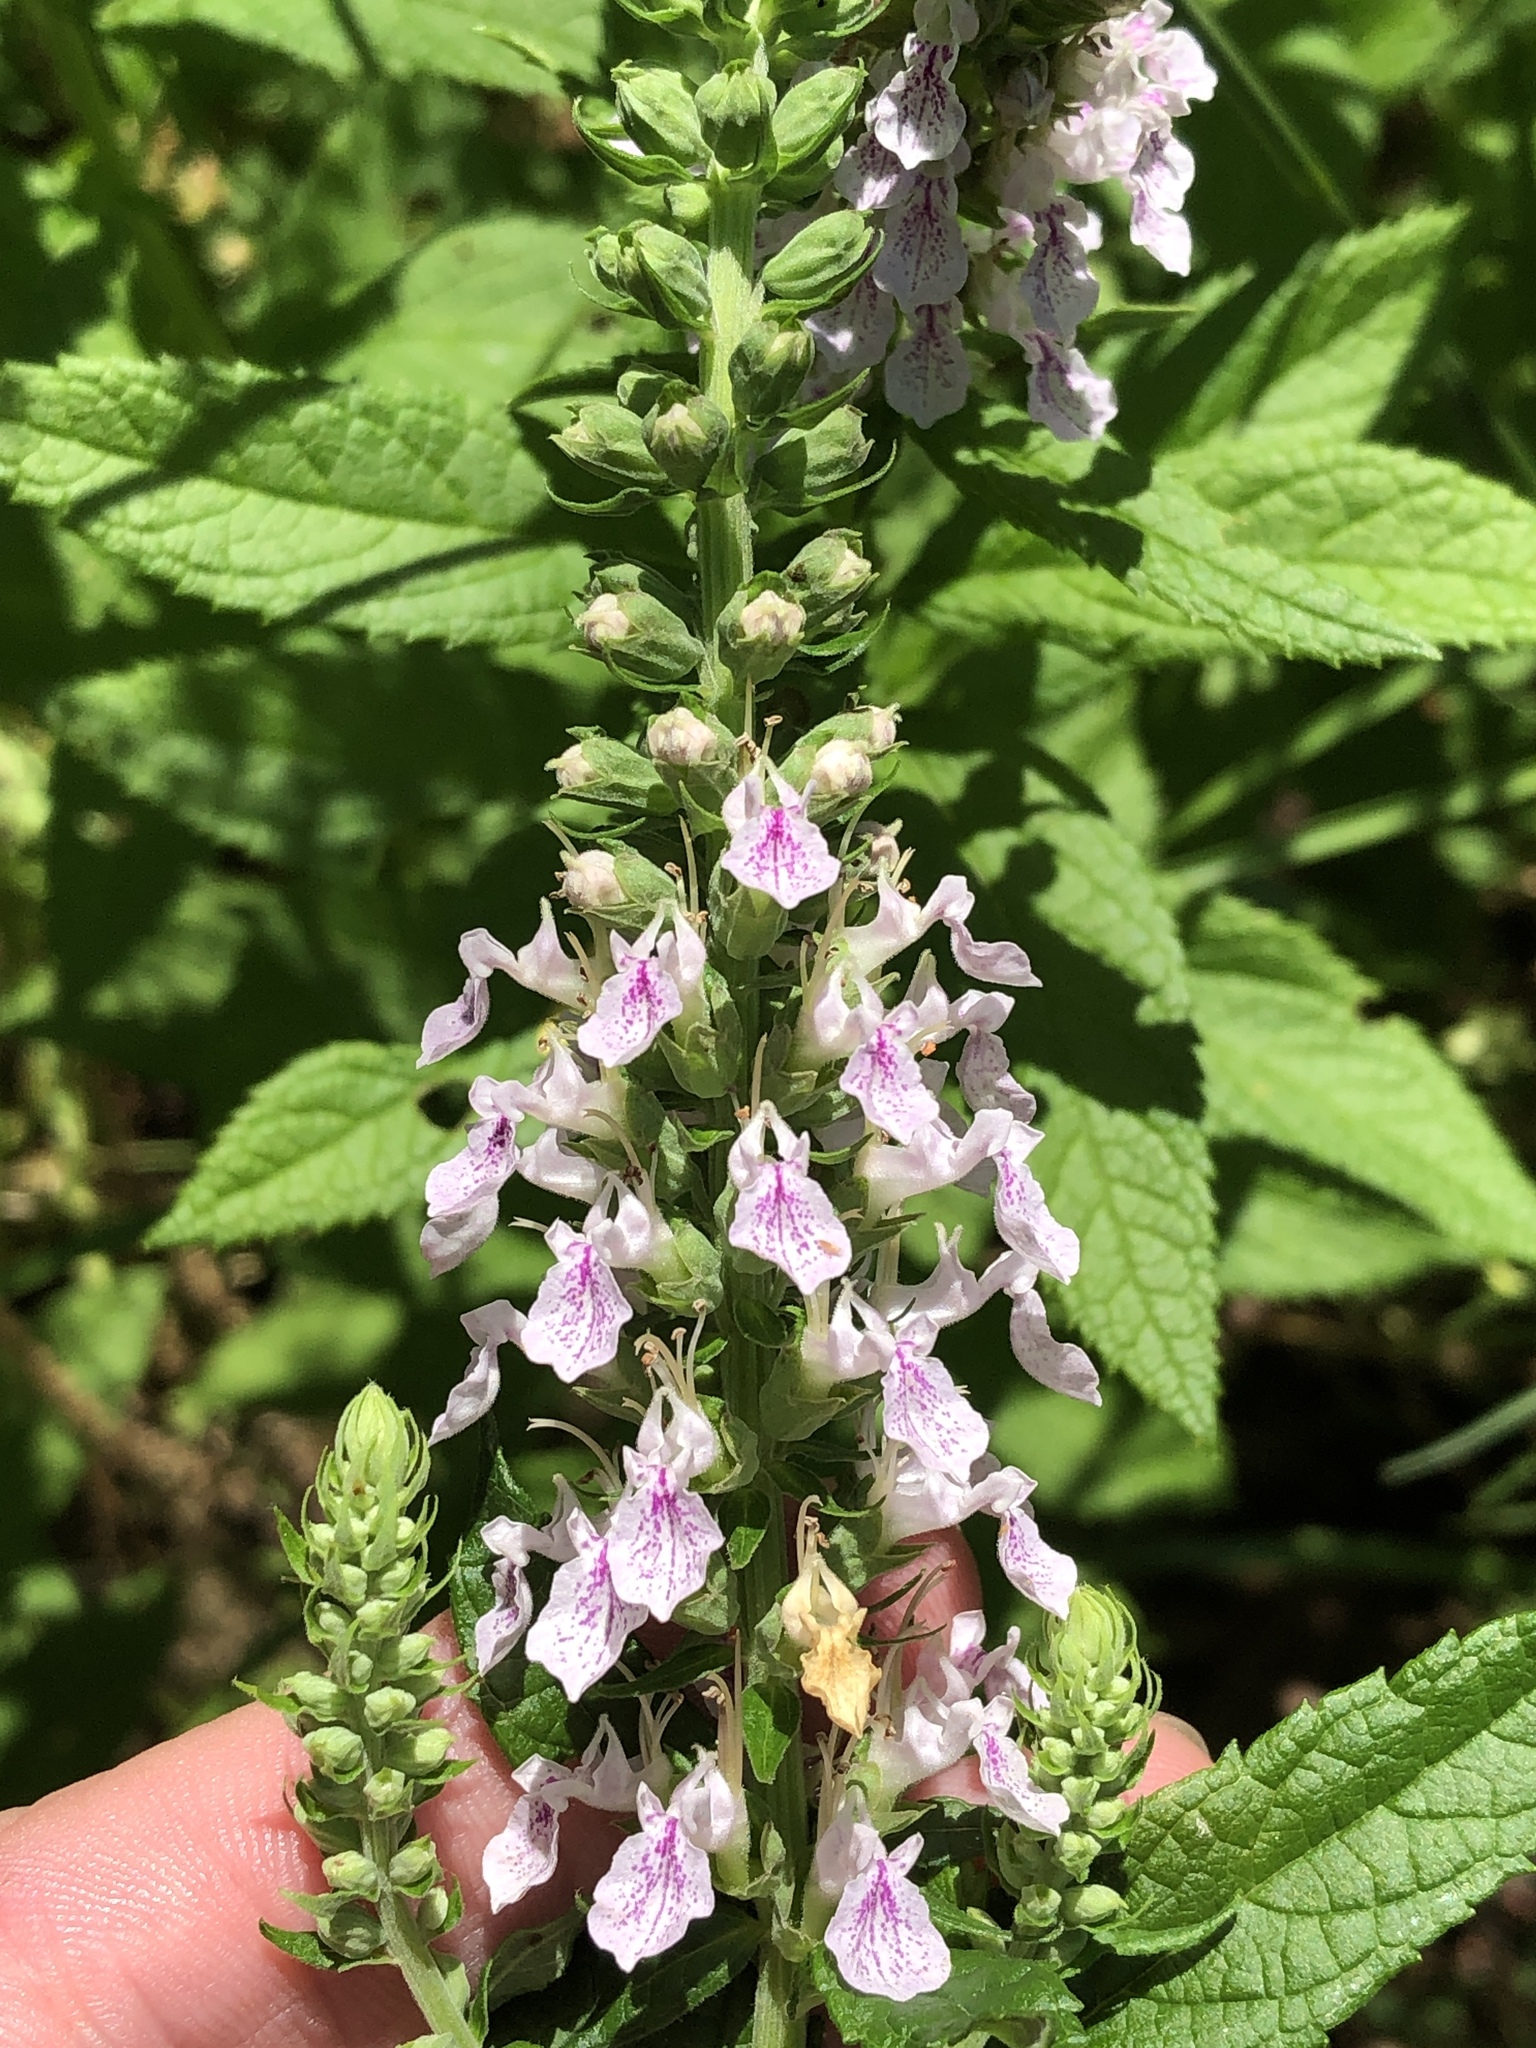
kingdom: Plantae
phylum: Tracheophyta
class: Magnoliopsida
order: Lamiales
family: Lamiaceae
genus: Teucrium
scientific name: Teucrium canadense
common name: American germander
